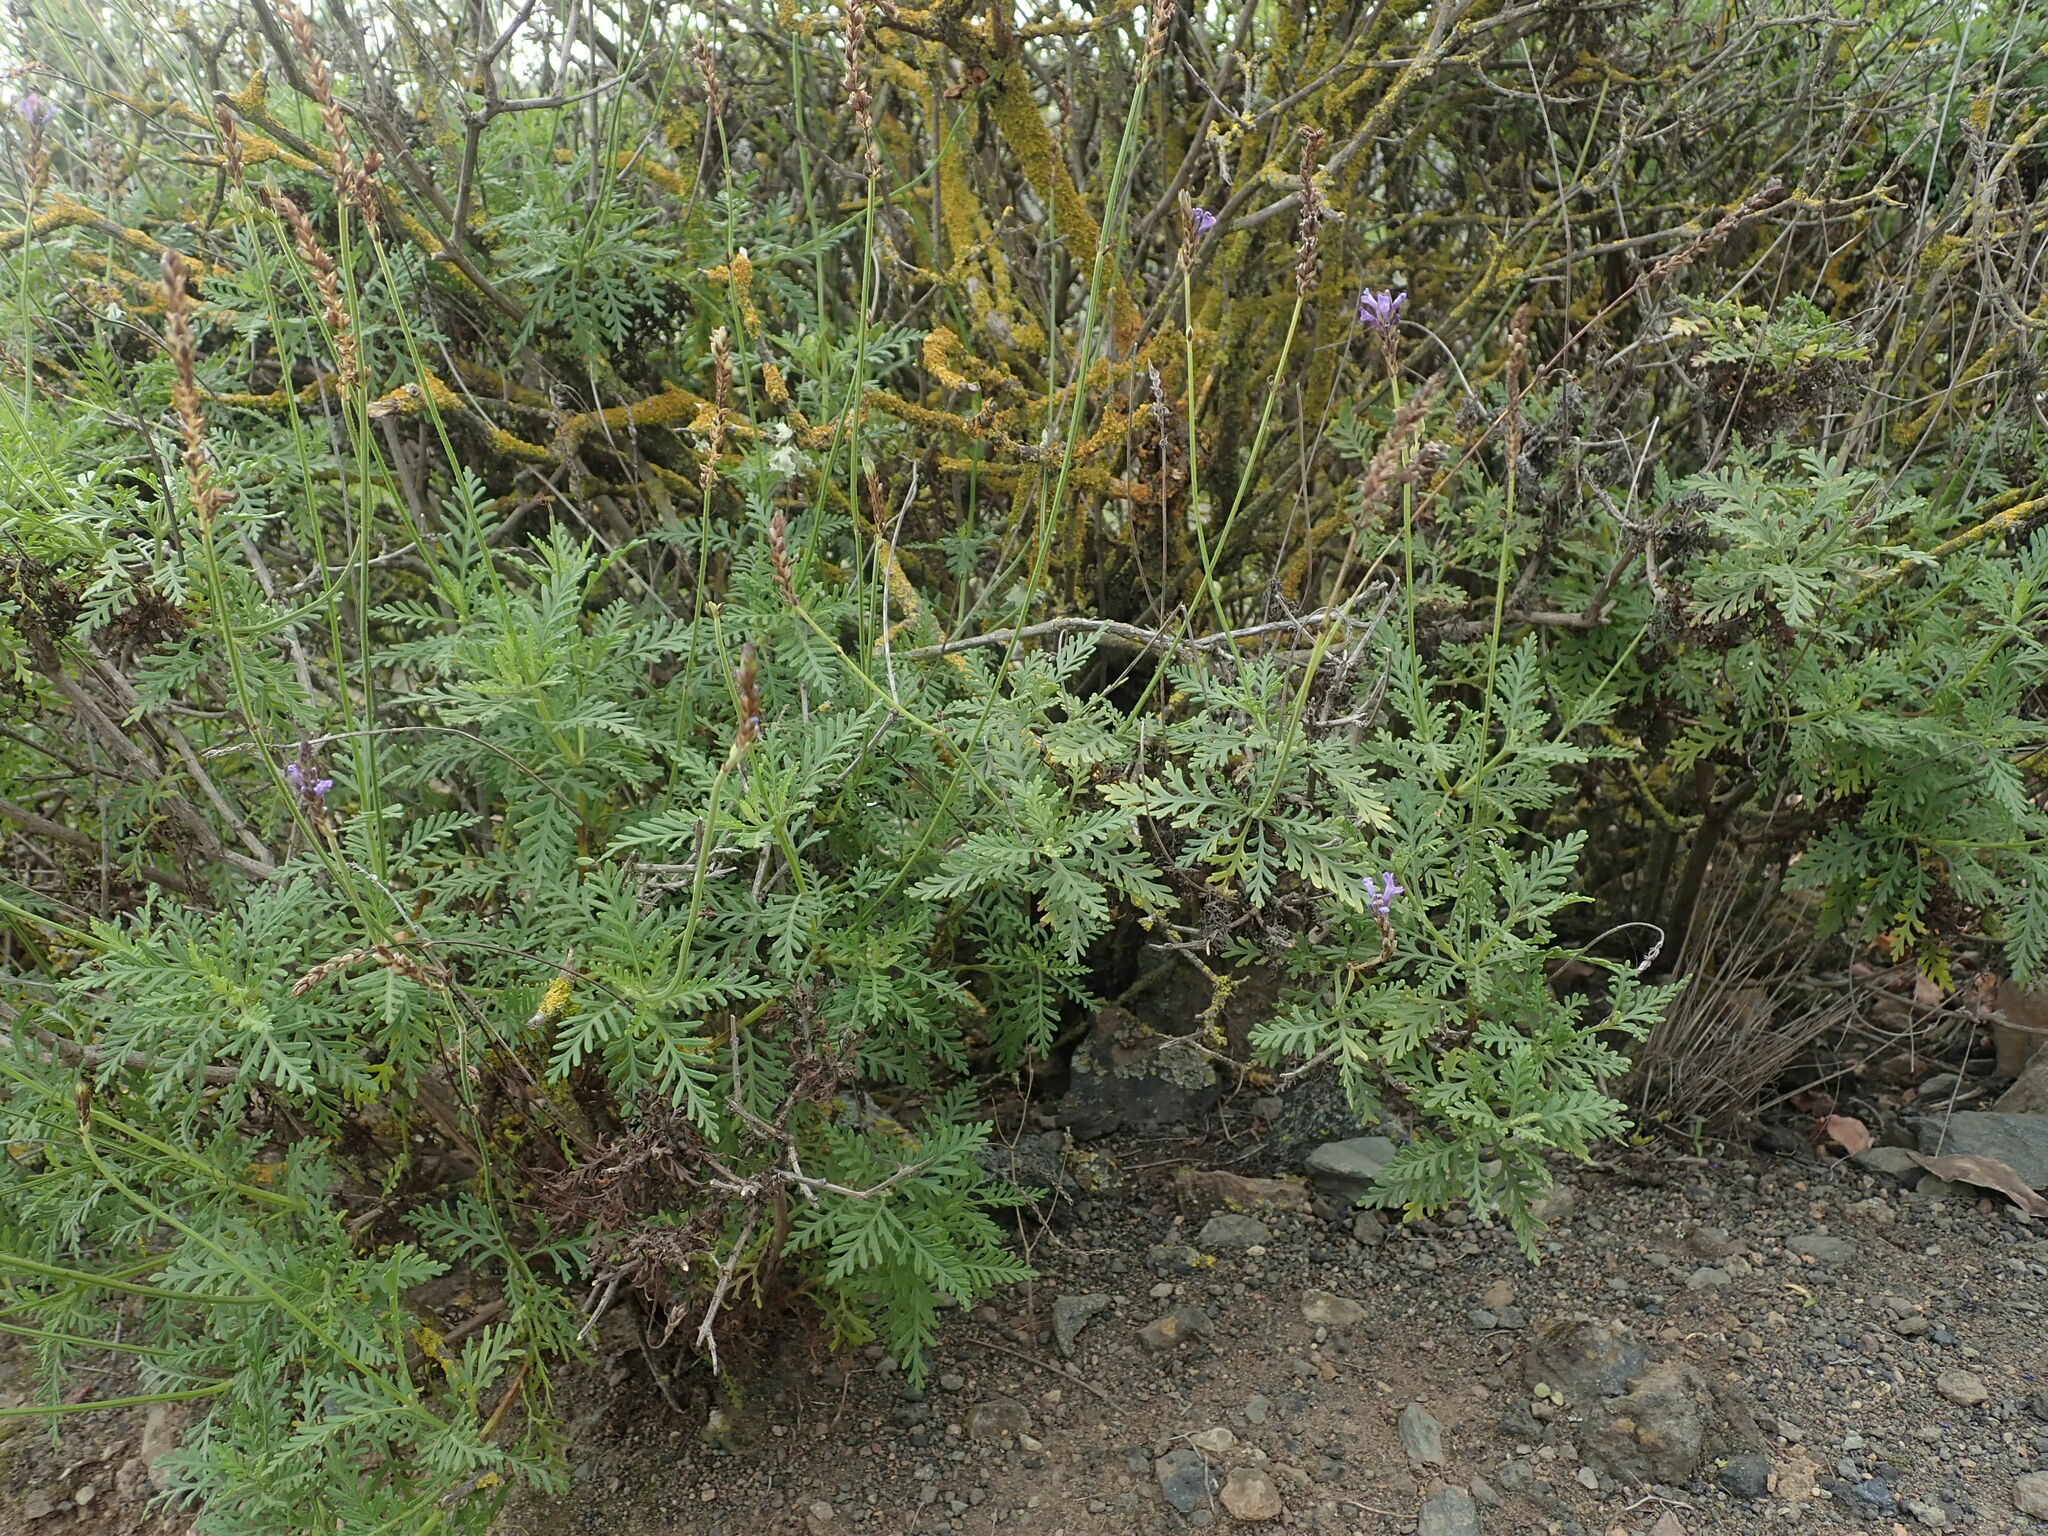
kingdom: Plantae
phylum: Tracheophyta
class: Magnoliopsida
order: Lamiales
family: Lamiaceae
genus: Lavandula
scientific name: Lavandula canariensis
